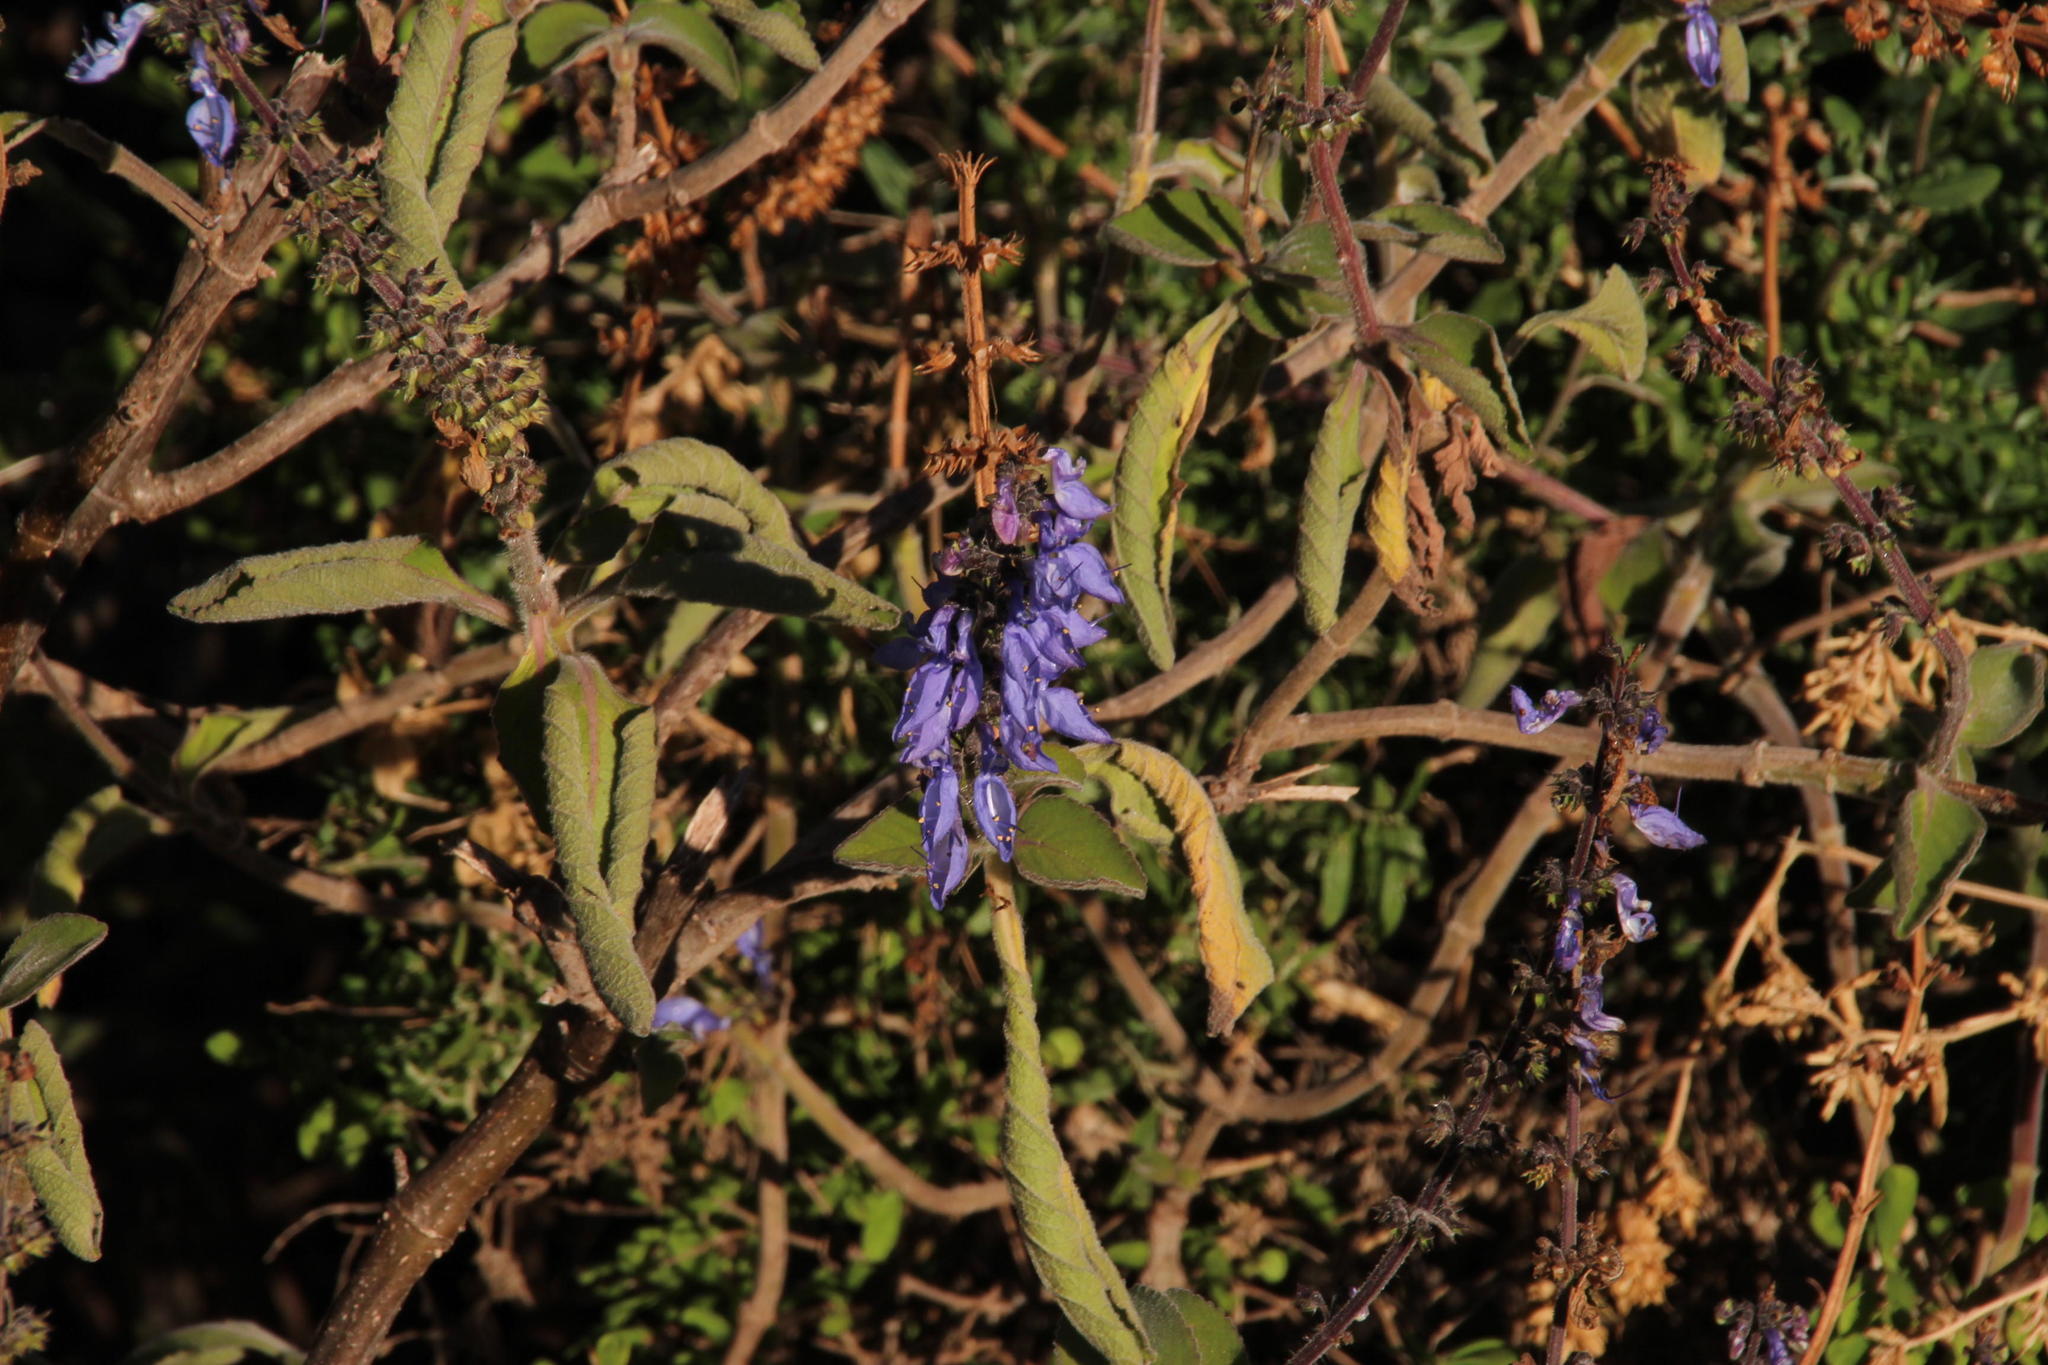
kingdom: Plantae
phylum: Tracheophyta
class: Magnoliopsida
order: Lamiales
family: Lamiaceae
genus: Coleus
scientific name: Coleus barbatus
